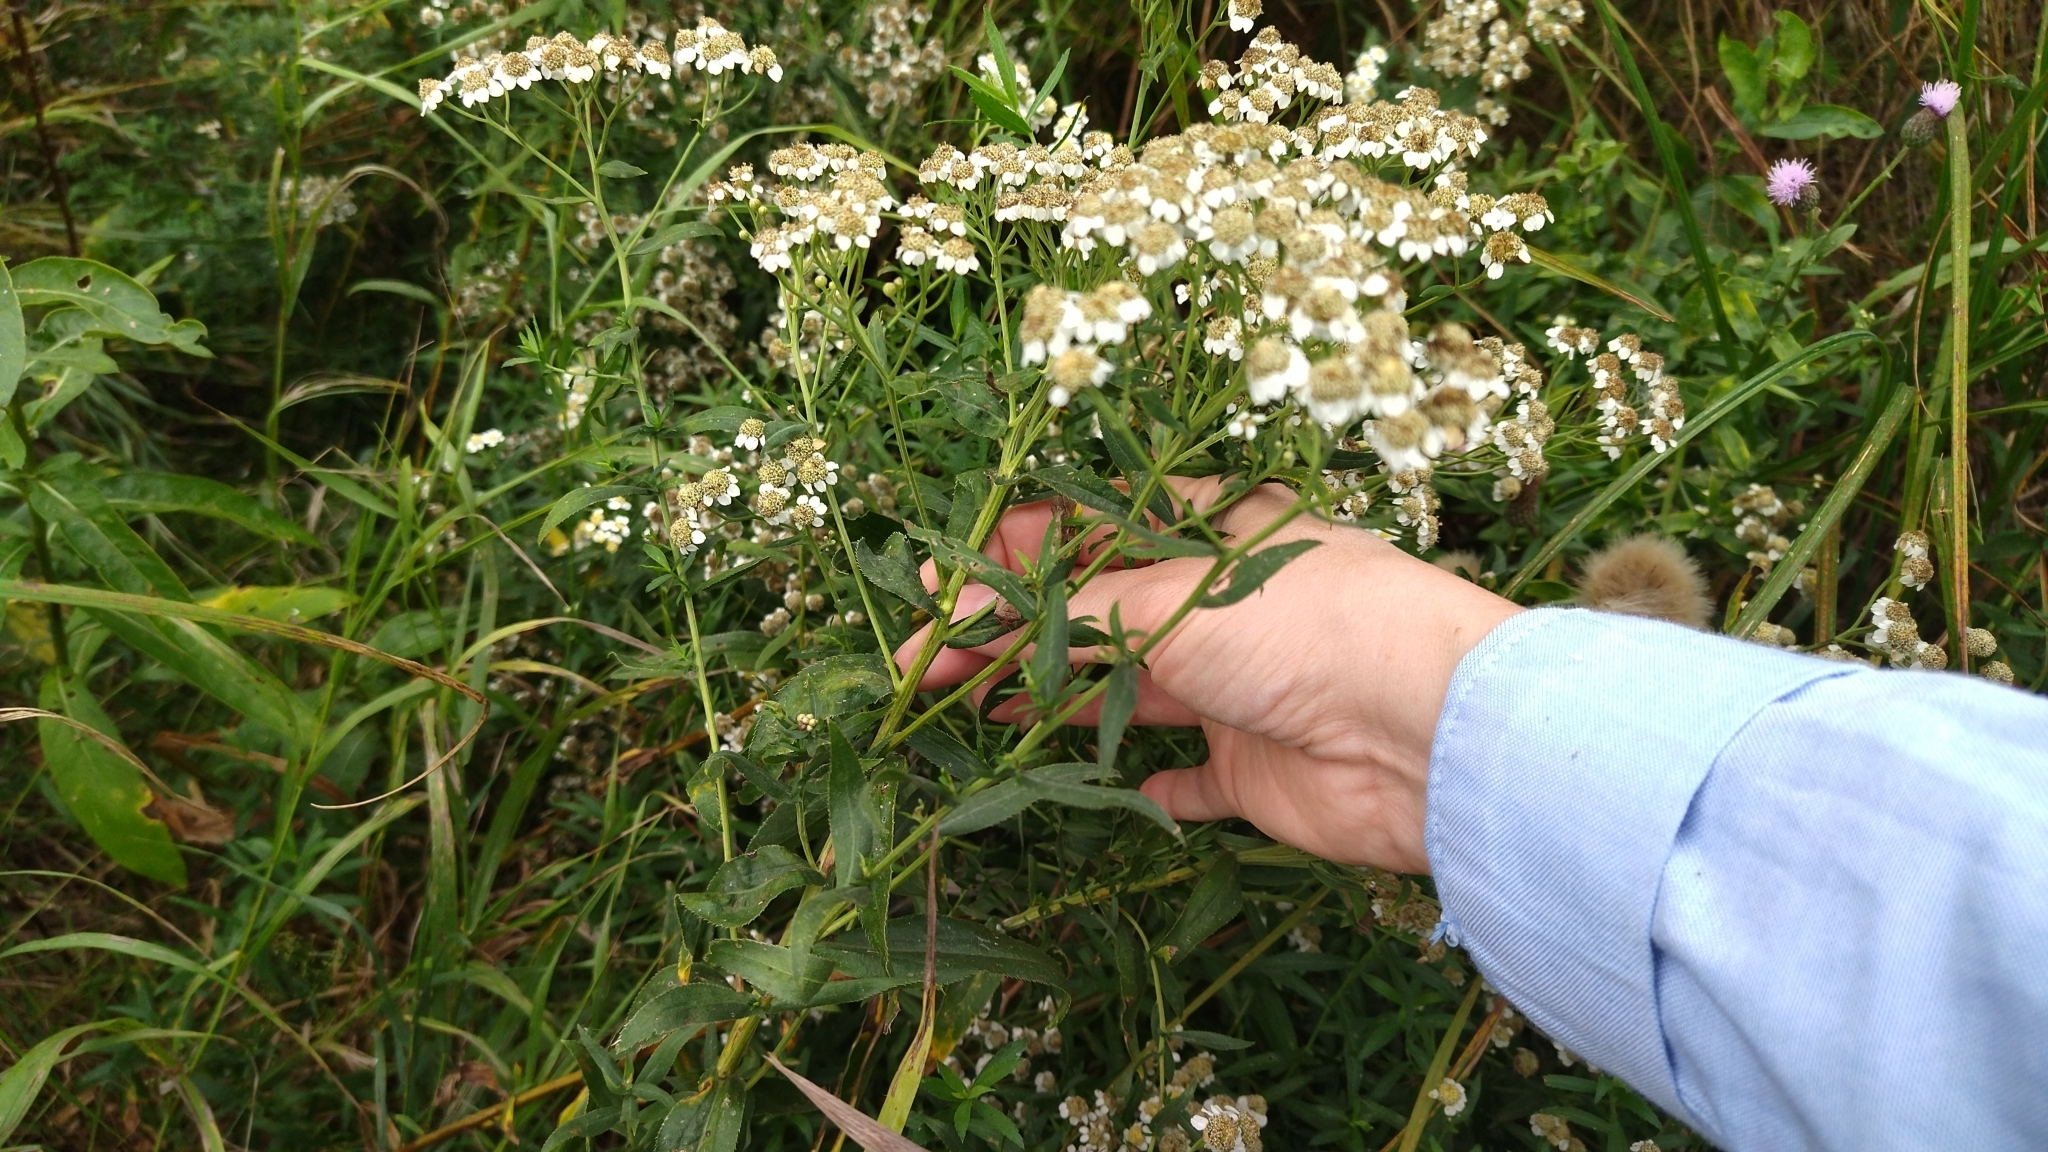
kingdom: Plantae
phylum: Tracheophyta
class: Magnoliopsida
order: Asterales
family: Asteraceae
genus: Achillea
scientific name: Achillea salicifolia
